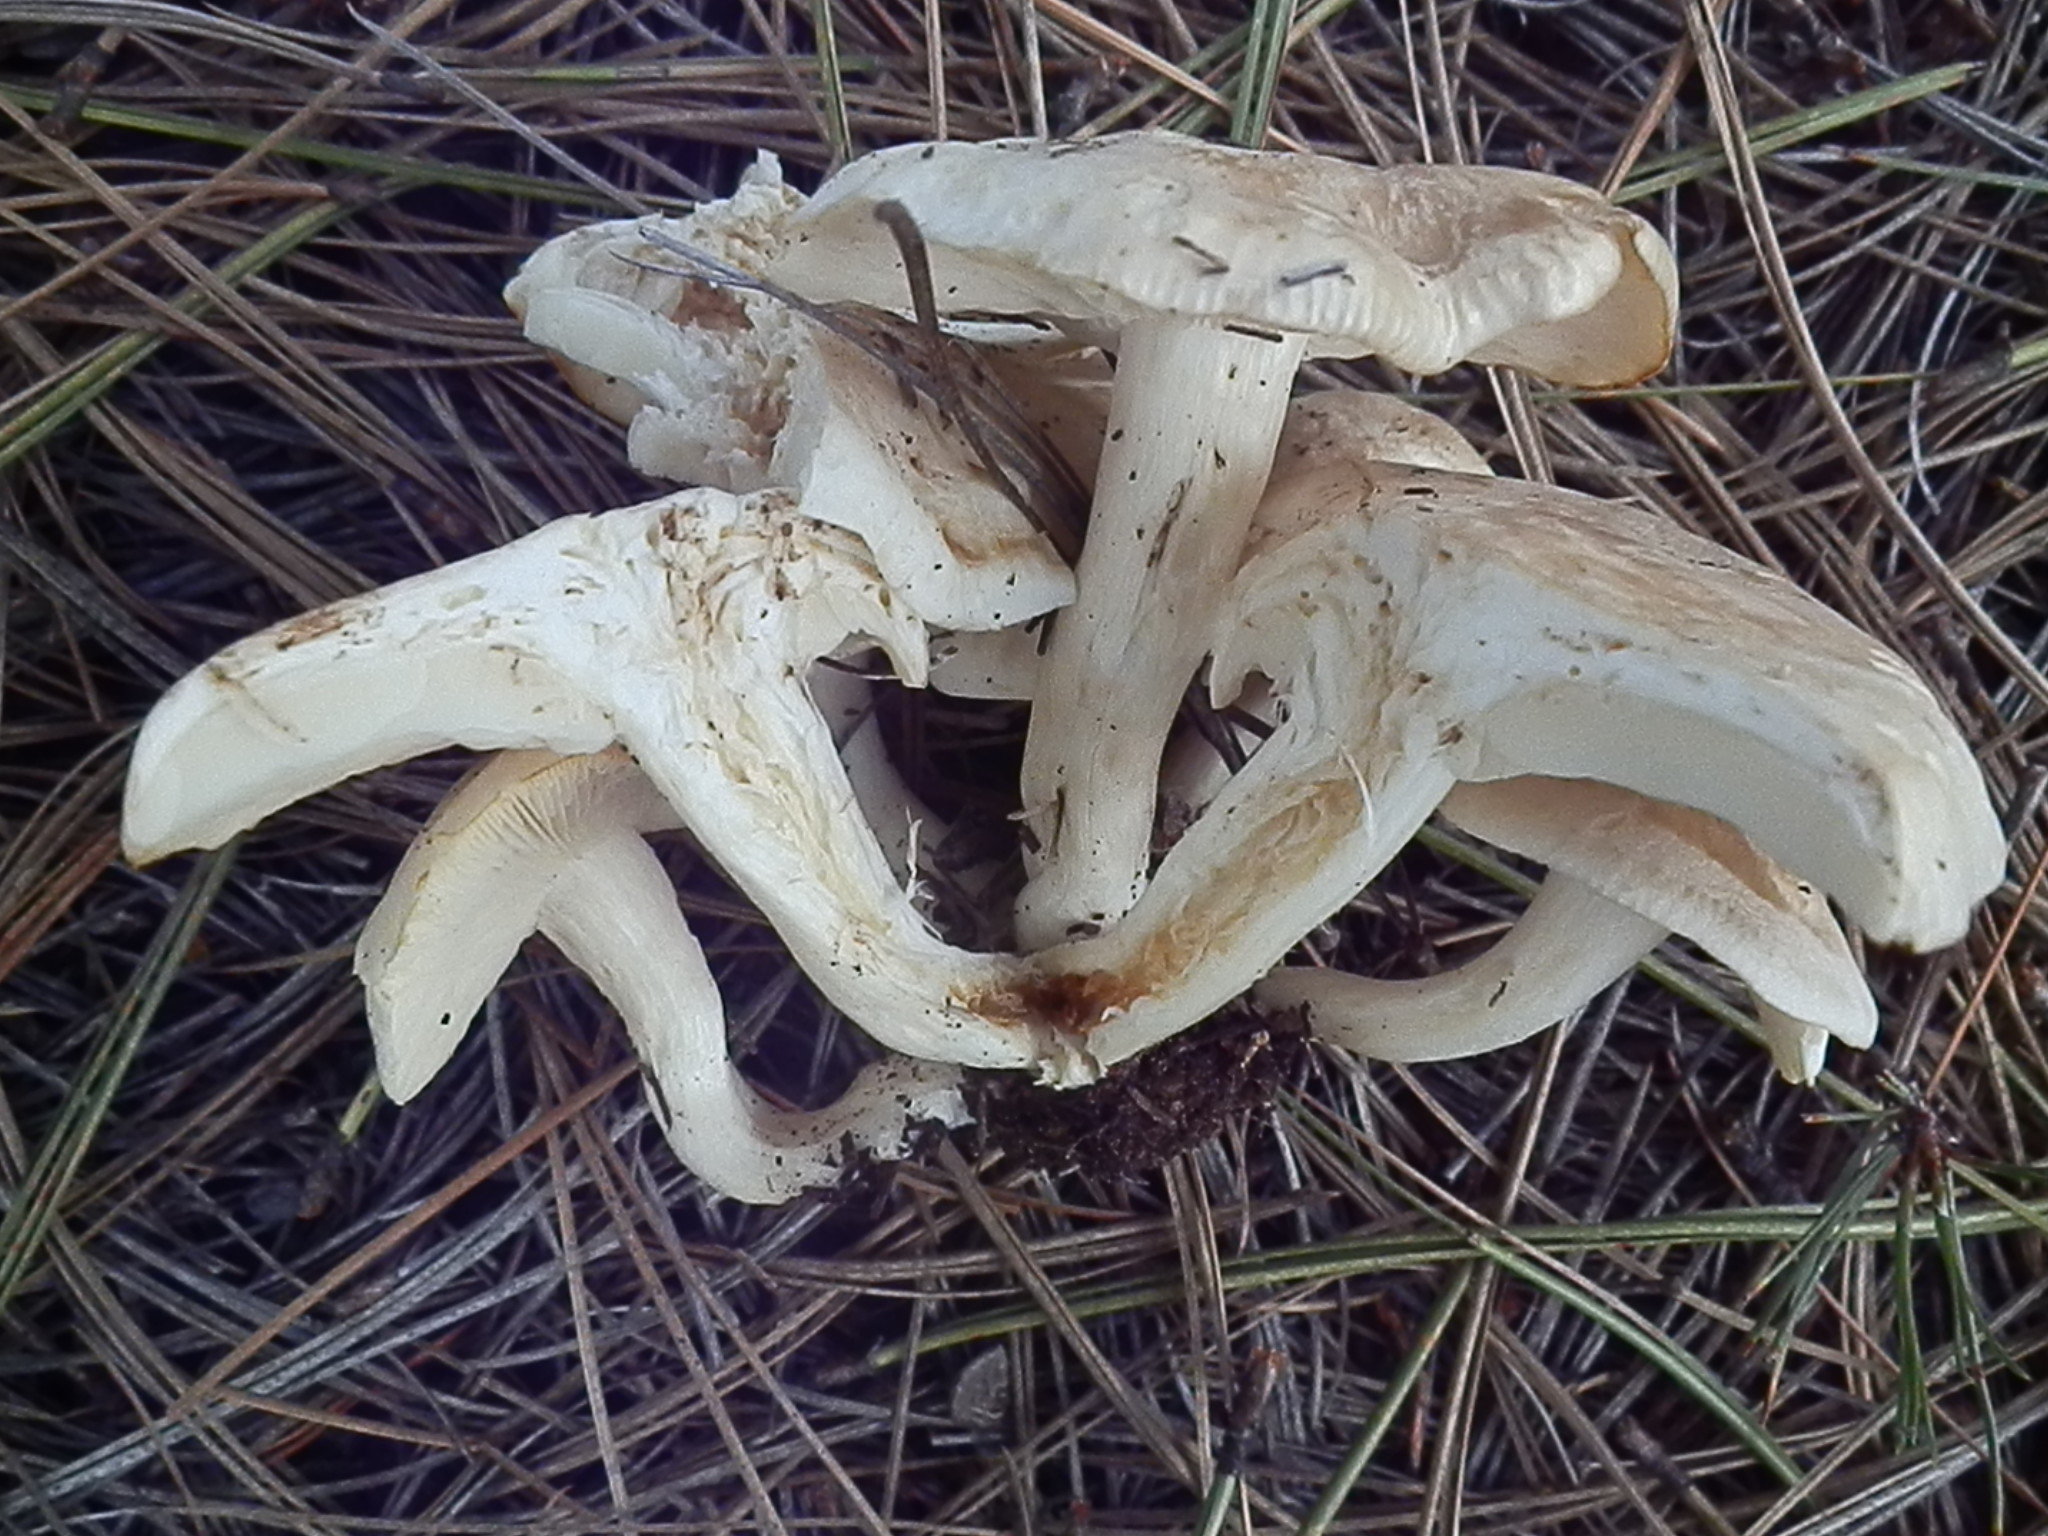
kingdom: Fungi
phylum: Basidiomycota
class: Agaricomycetes
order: Agaricales
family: Lyophyllaceae
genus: Lyophyllum
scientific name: Lyophyllum shimeji
